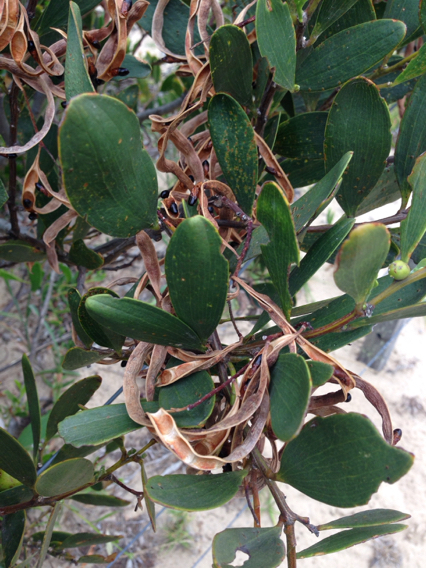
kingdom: Plantae
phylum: Tracheophyta
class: Magnoliopsida
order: Fabales
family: Fabaceae
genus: Acacia
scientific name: Acacia longifolia
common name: Sydney golden wattle
